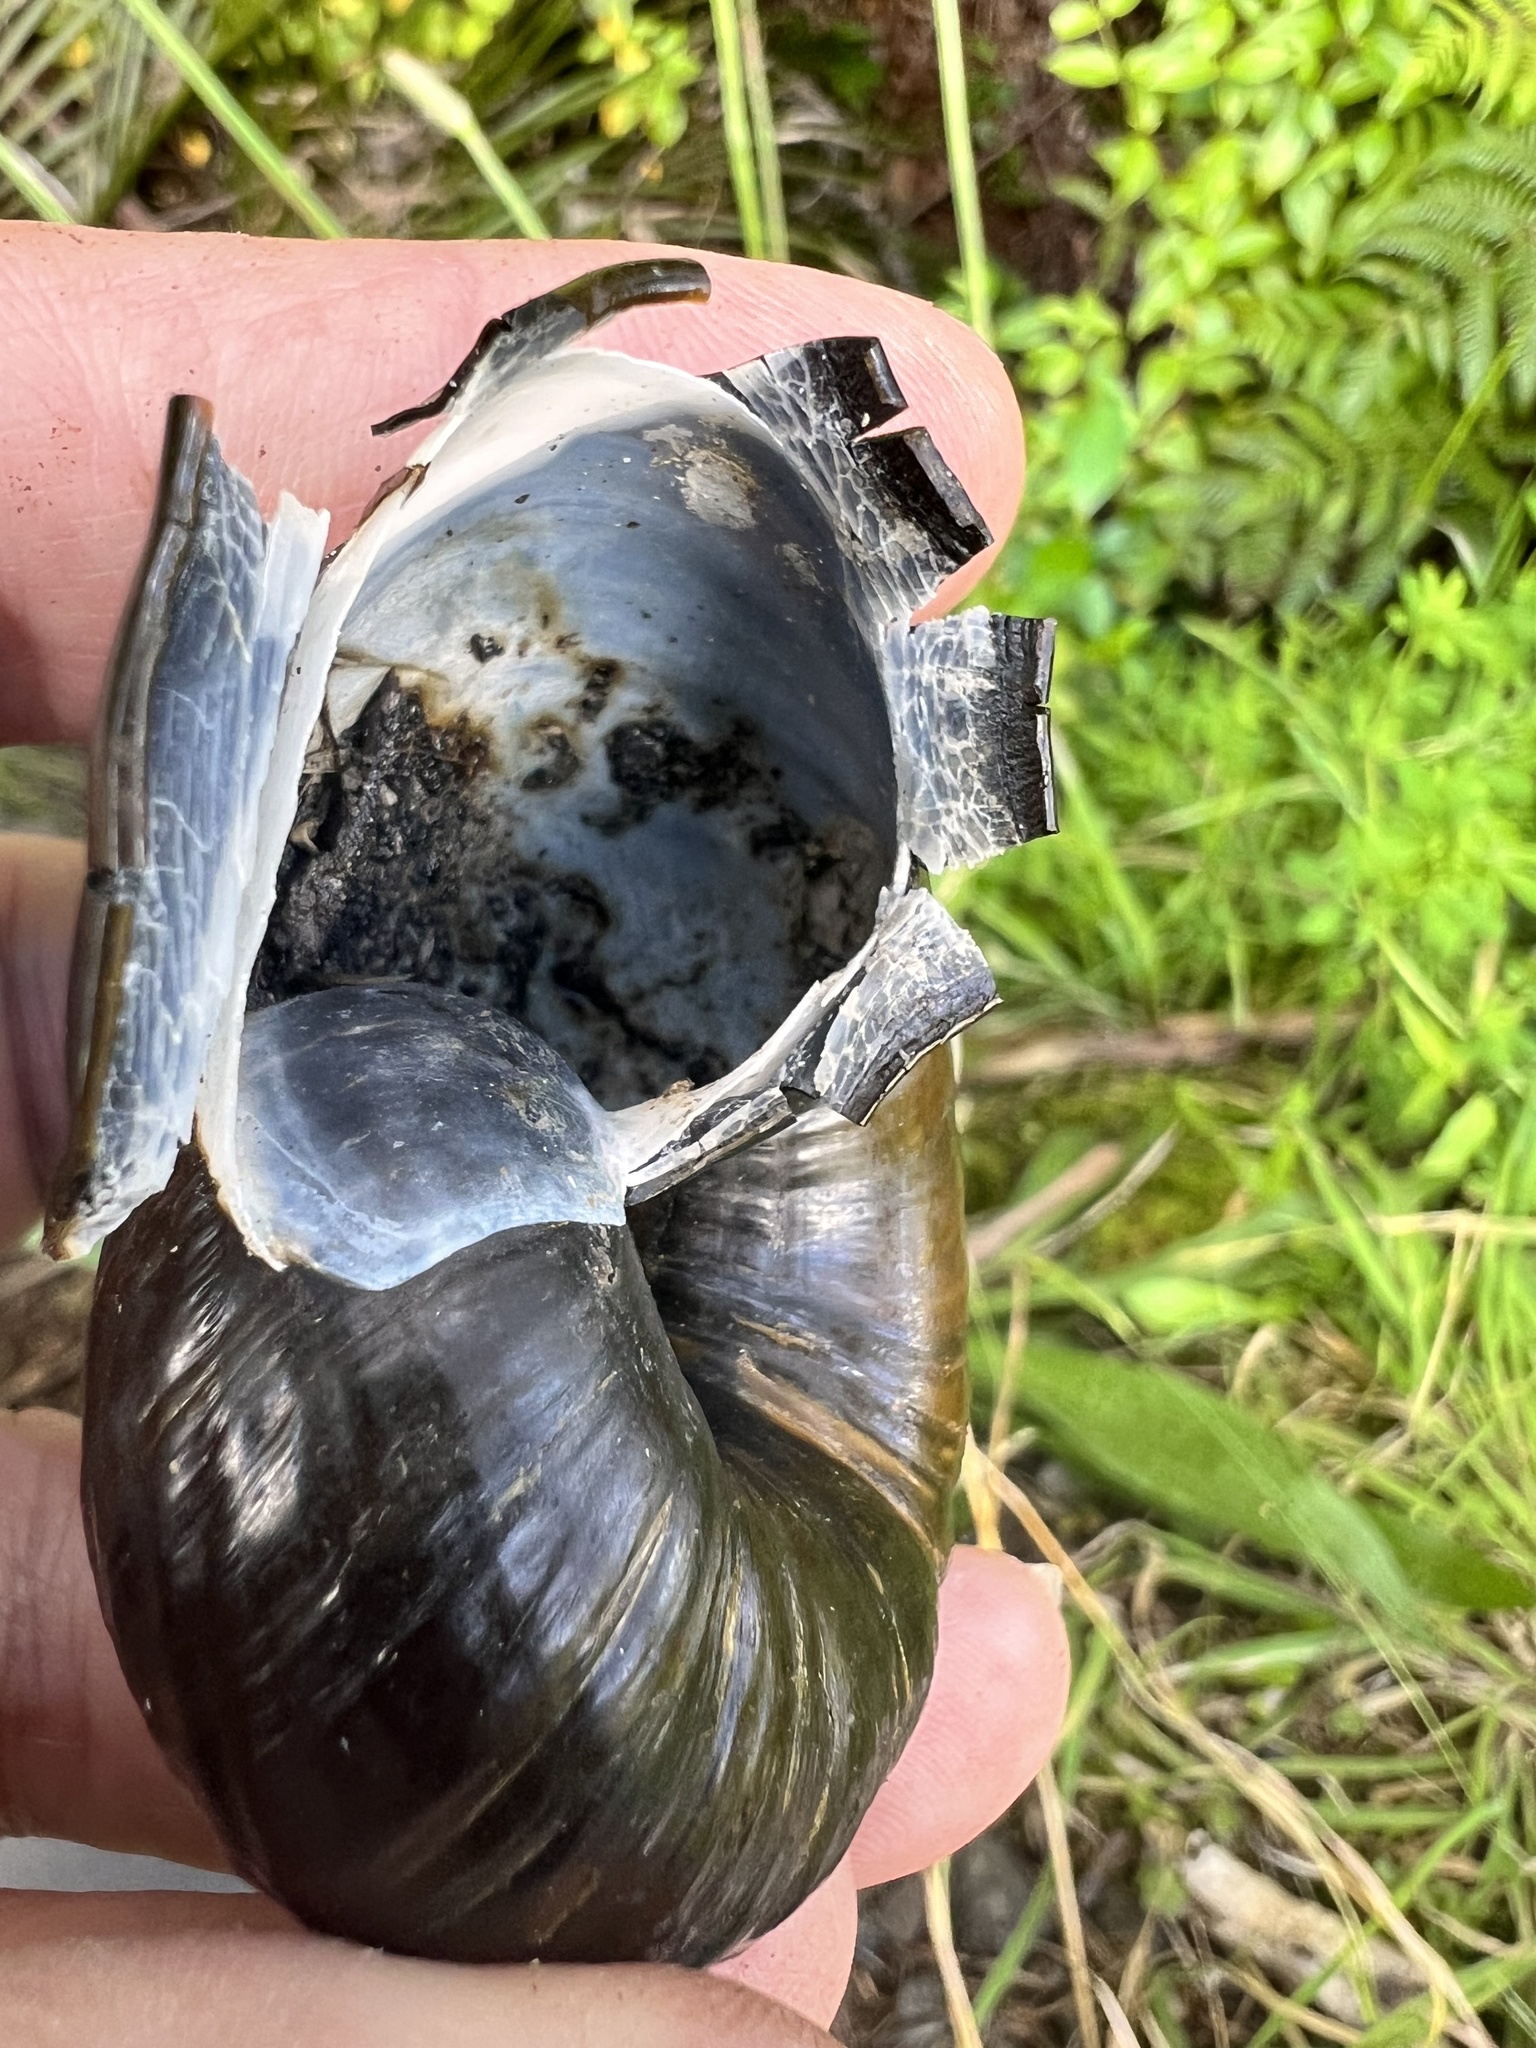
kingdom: Animalia
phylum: Mollusca
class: Gastropoda
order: Stylommatophora
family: Rhytididae
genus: Paryphanta
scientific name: Paryphanta busbyi
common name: Kauri snail
